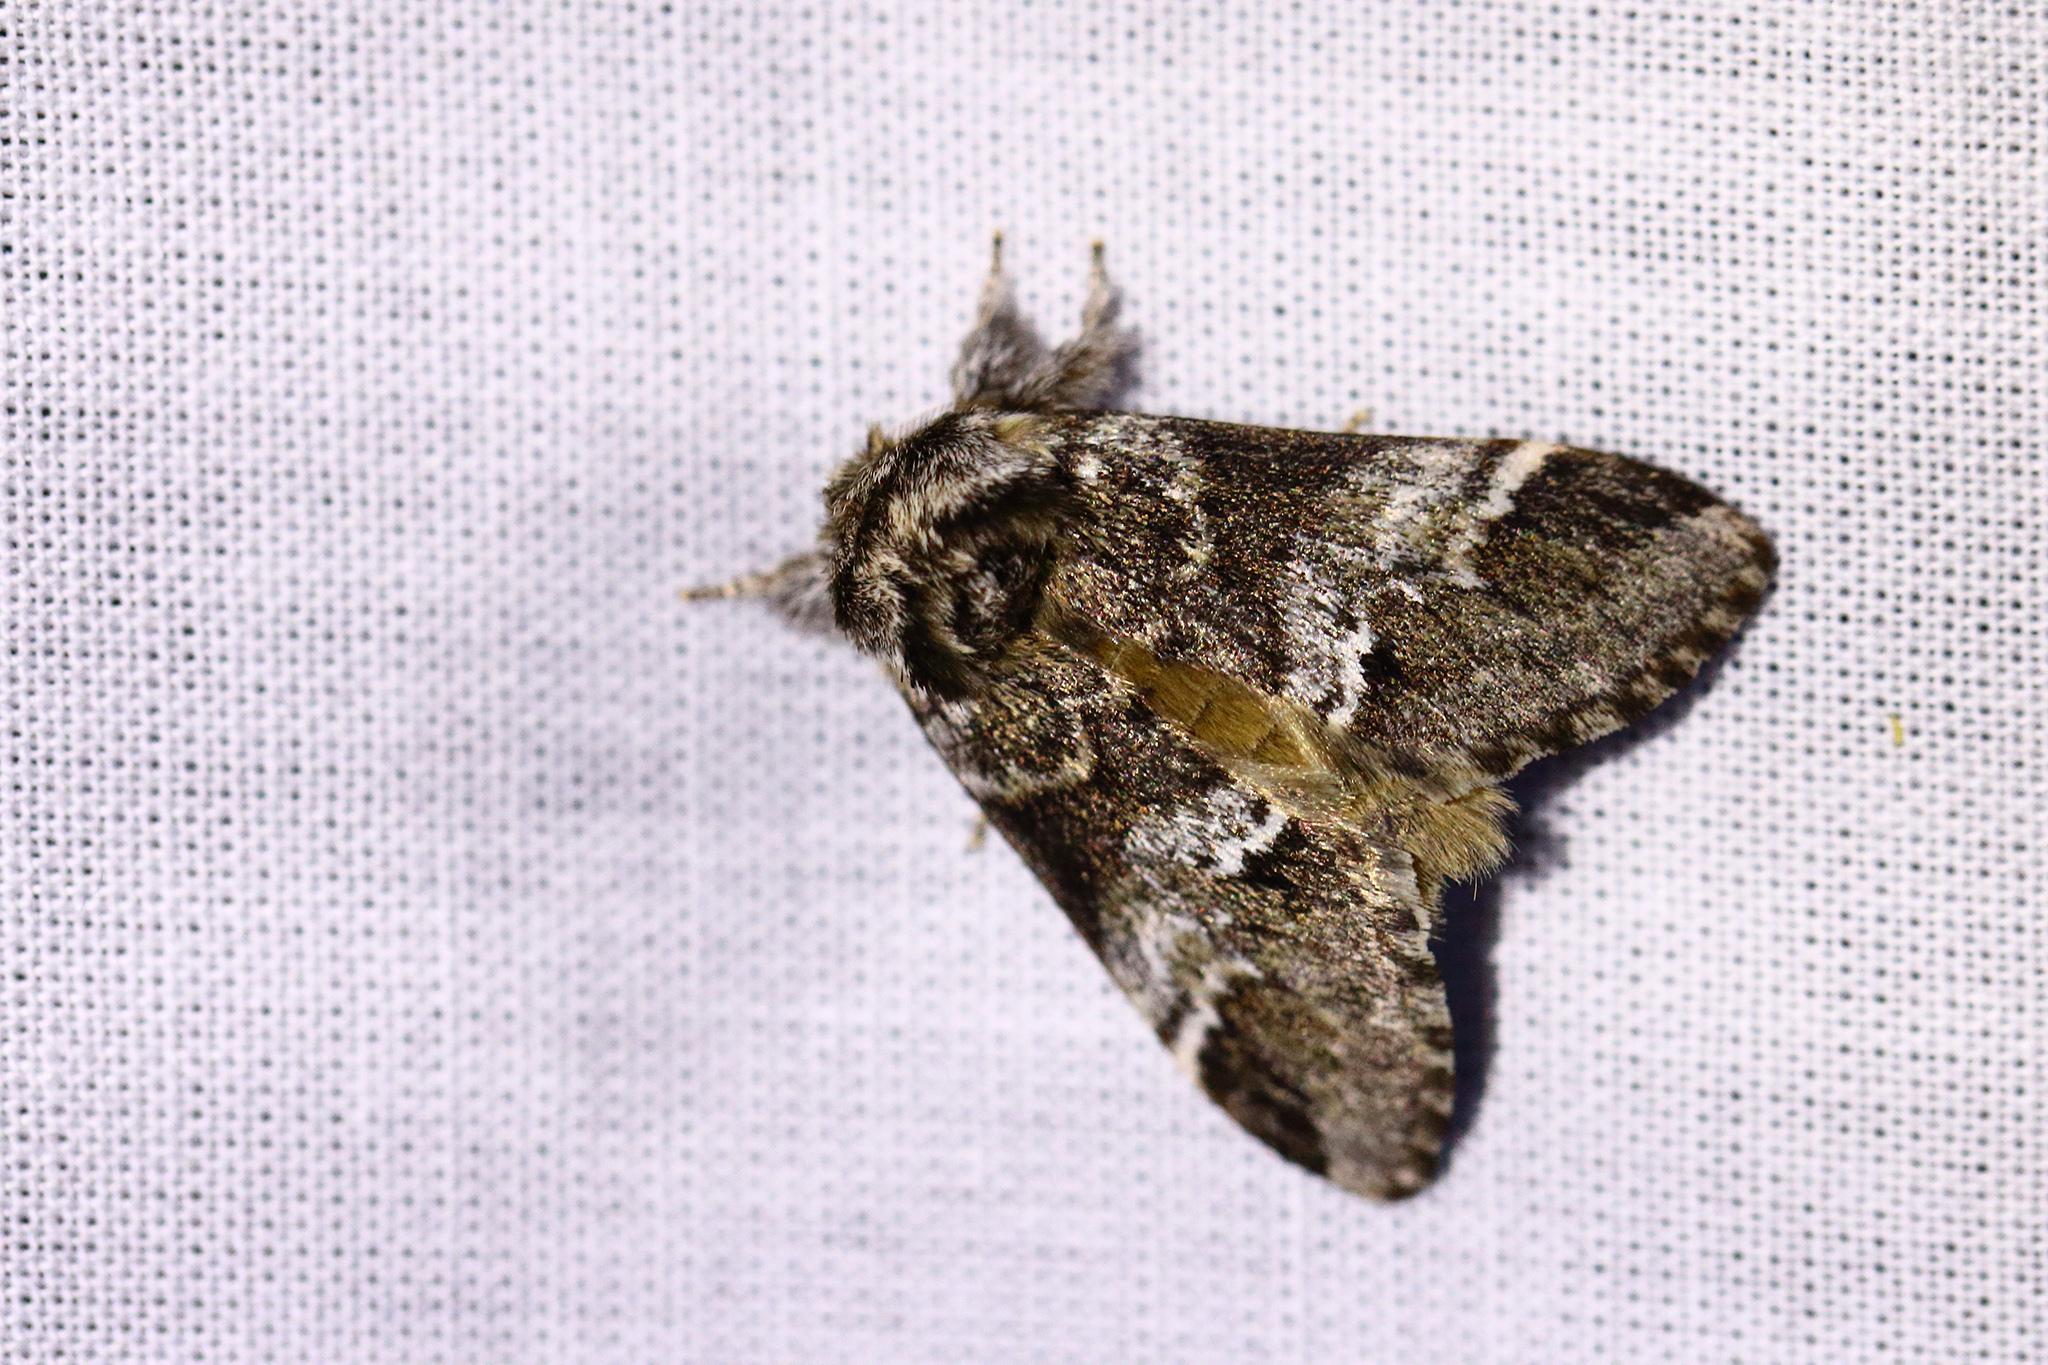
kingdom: Animalia
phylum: Arthropoda
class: Insecta
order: Lepidoptera
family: Notodontidae
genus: Drymonia
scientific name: Drymonia dodonaea
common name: Marbled brown
